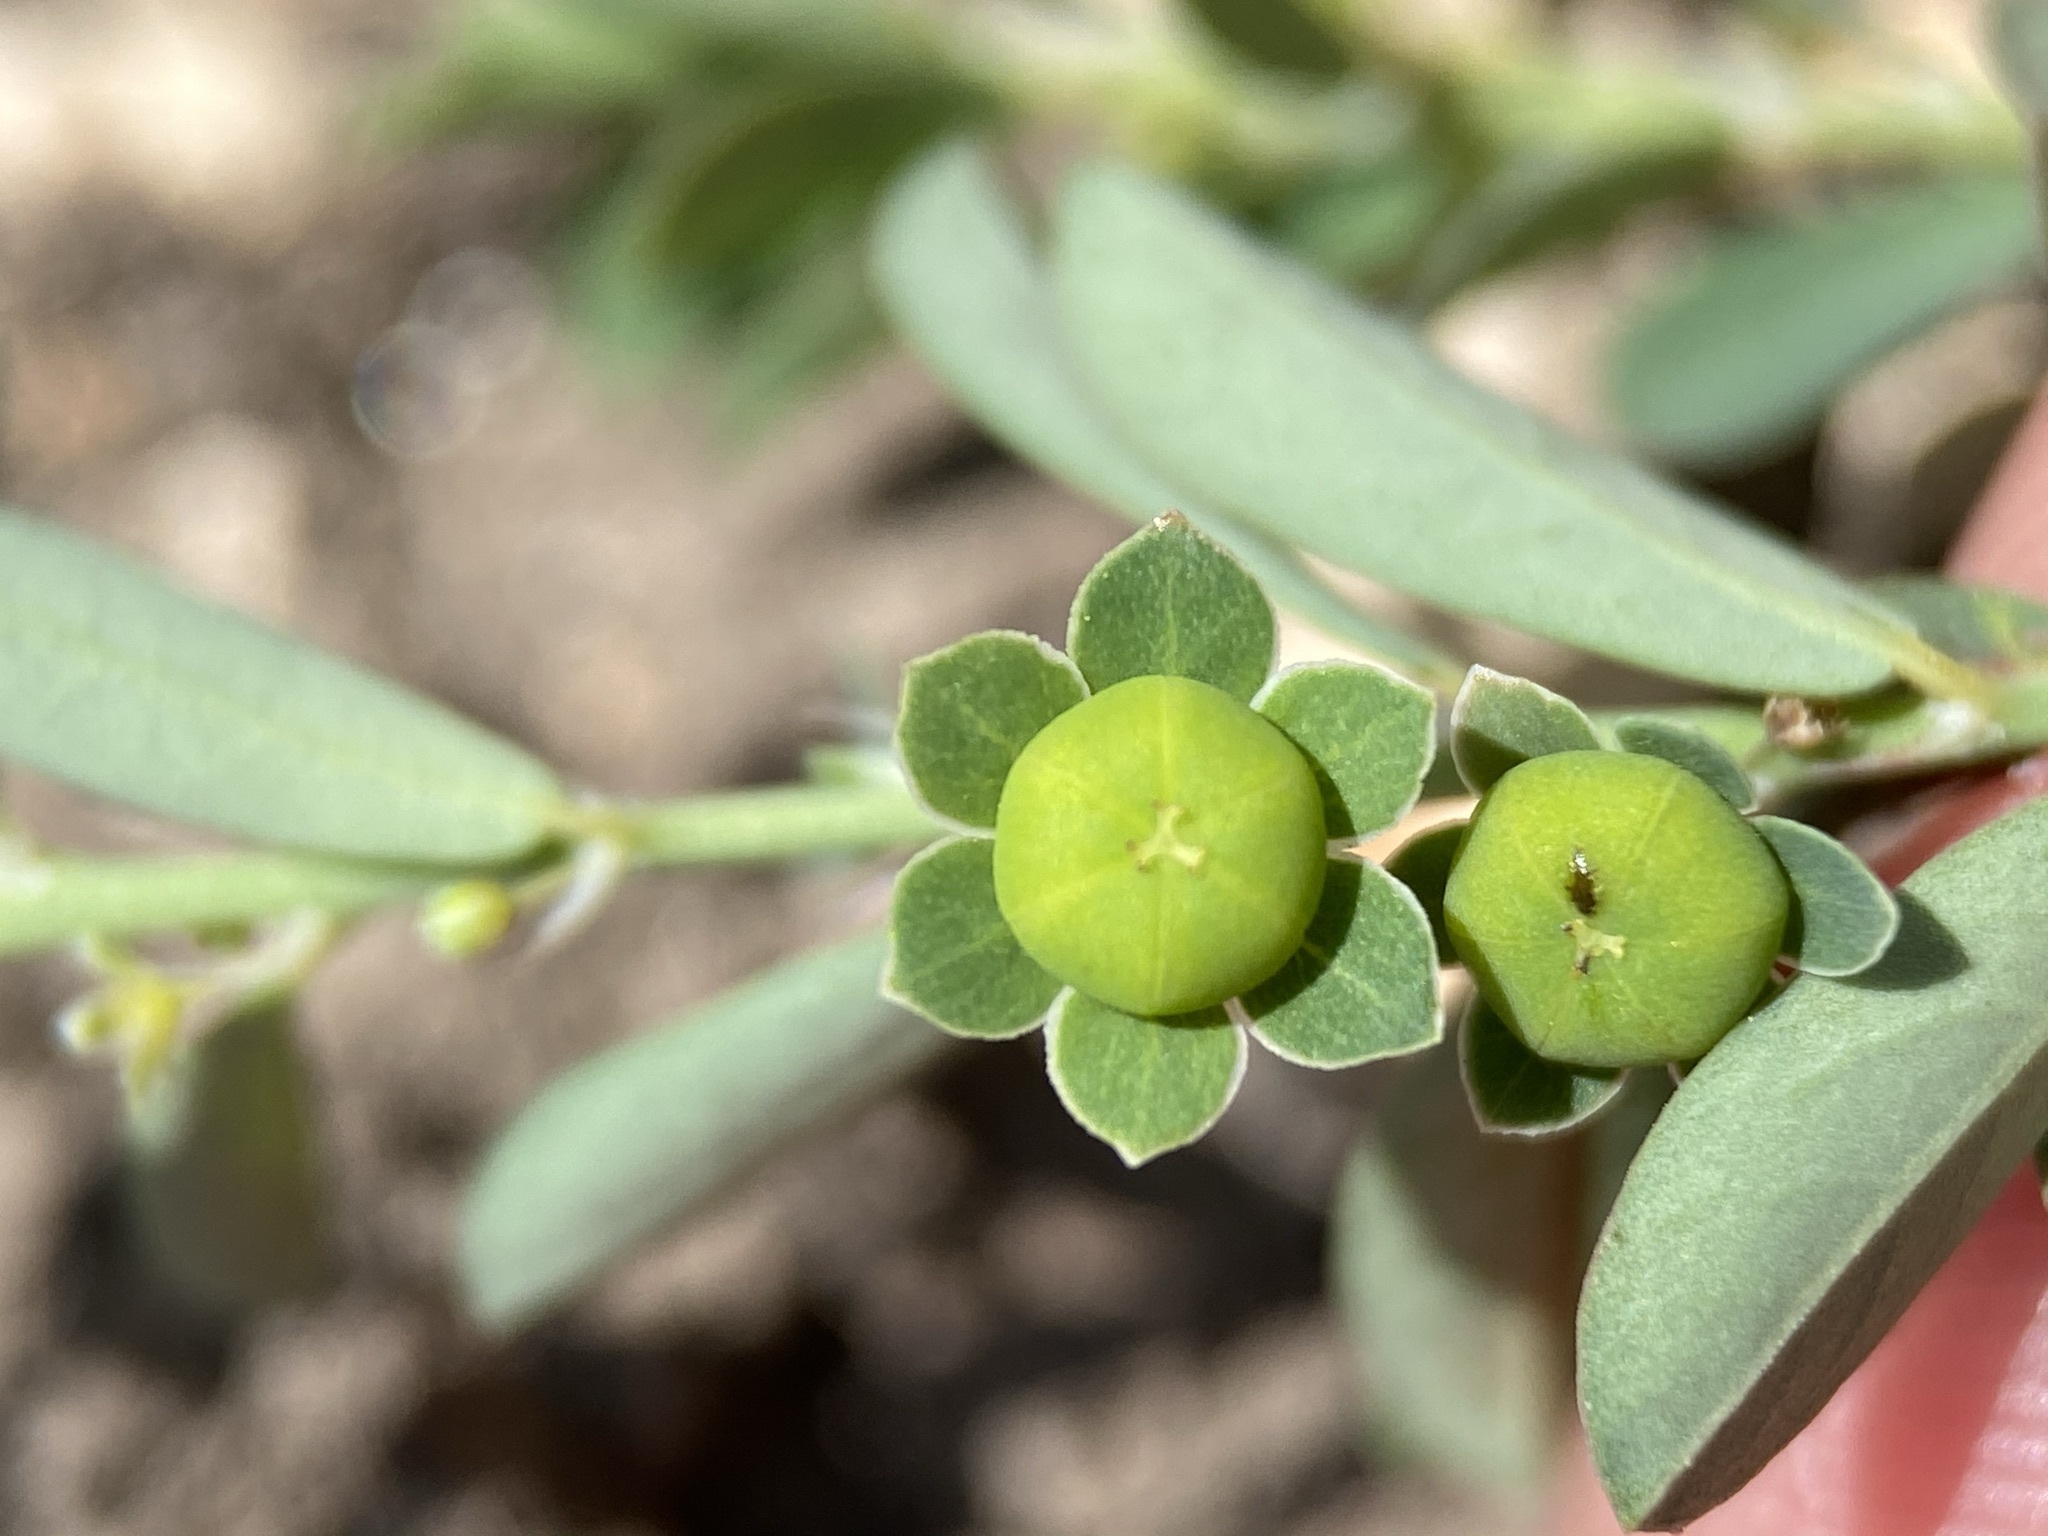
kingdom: Plantae
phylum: Tracheophyta
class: Magnoliopsida
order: Malpighiales
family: Phyllanthaceae
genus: Phyllanthus
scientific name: Phyllanthus polygonoides
